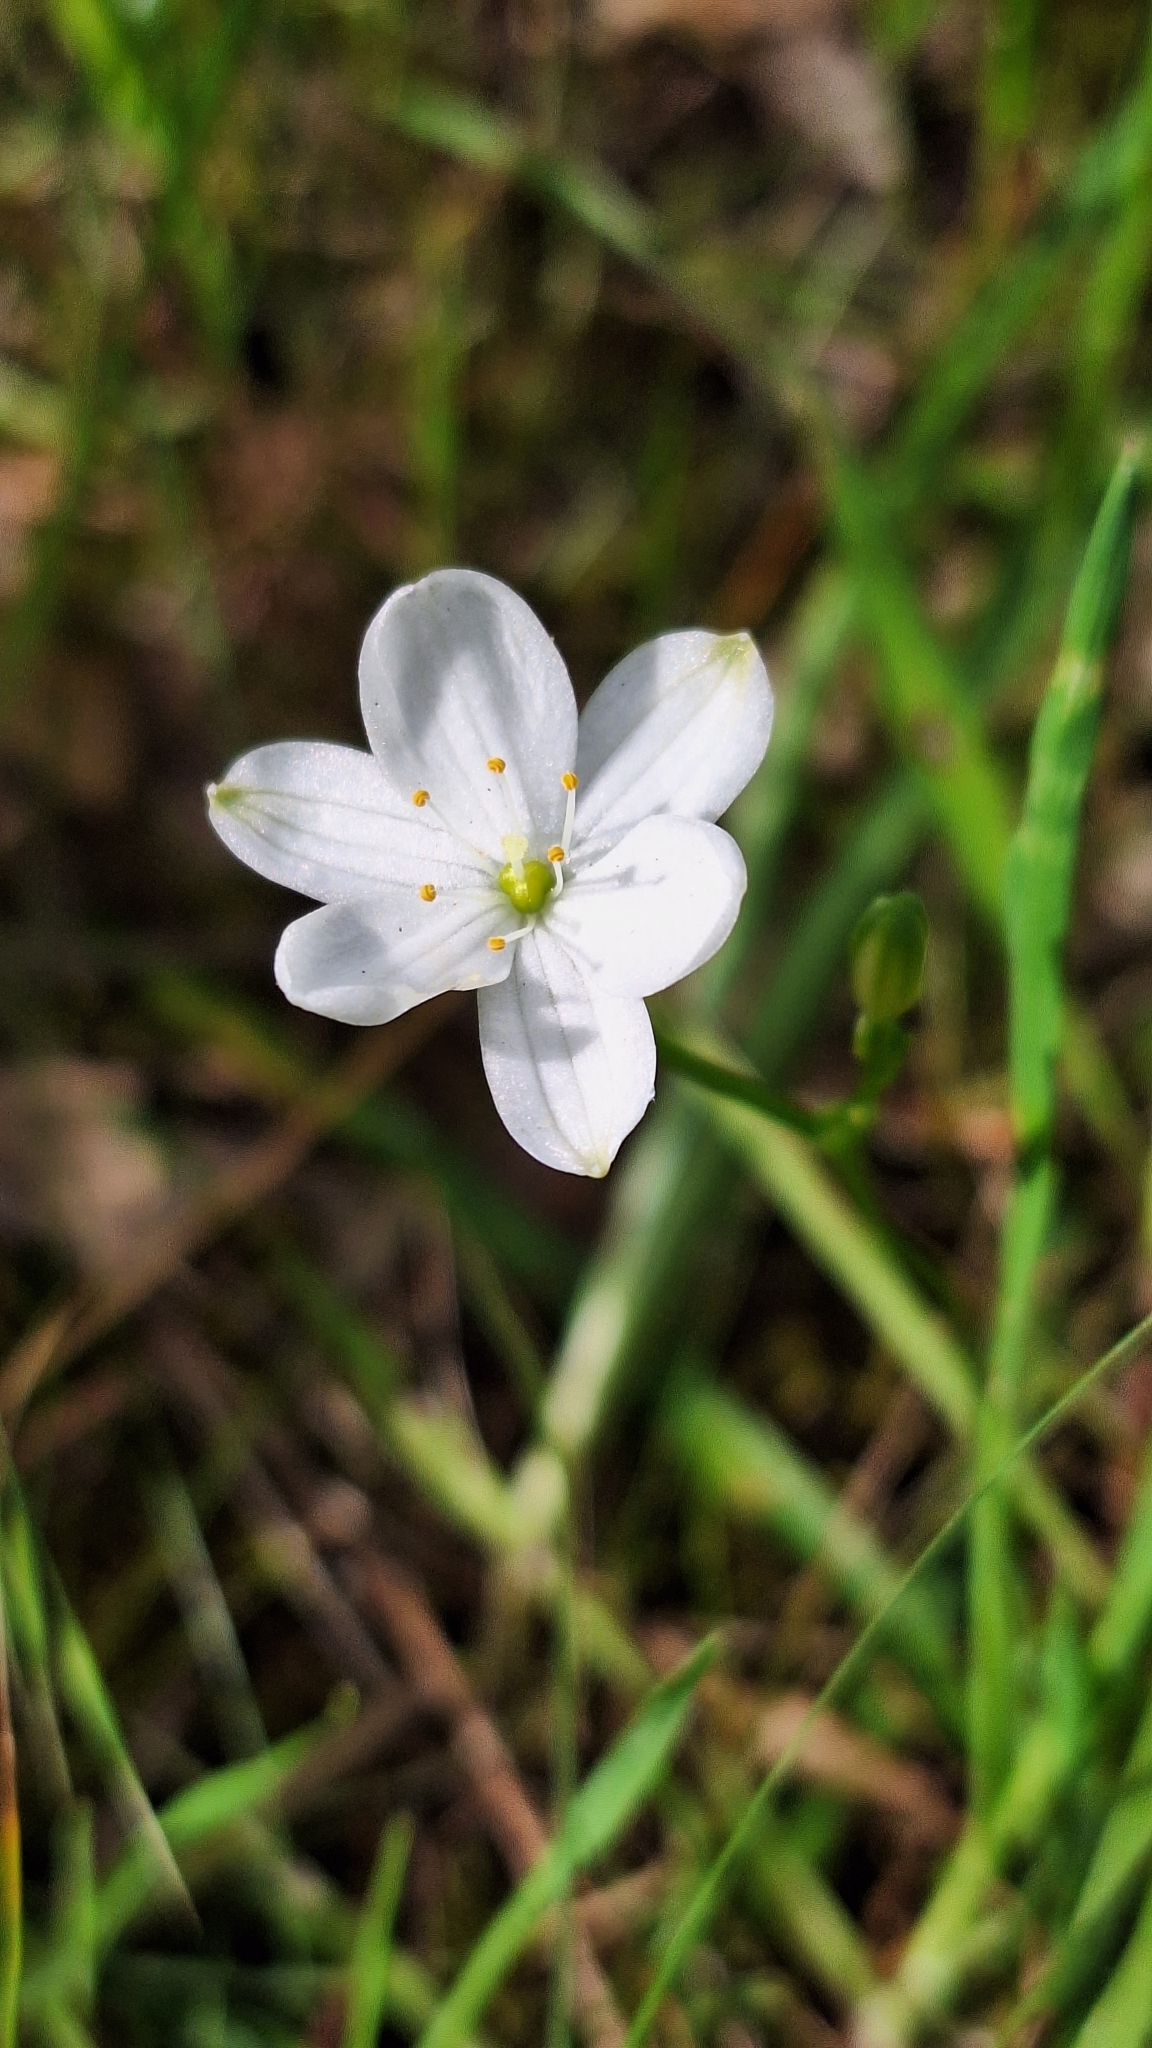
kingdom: Plantae
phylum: Tracheophyta
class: Liliopsida
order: Asparagales
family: Asphodelaceae
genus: Chamaescilla
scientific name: Chamaescilla corymbosa
